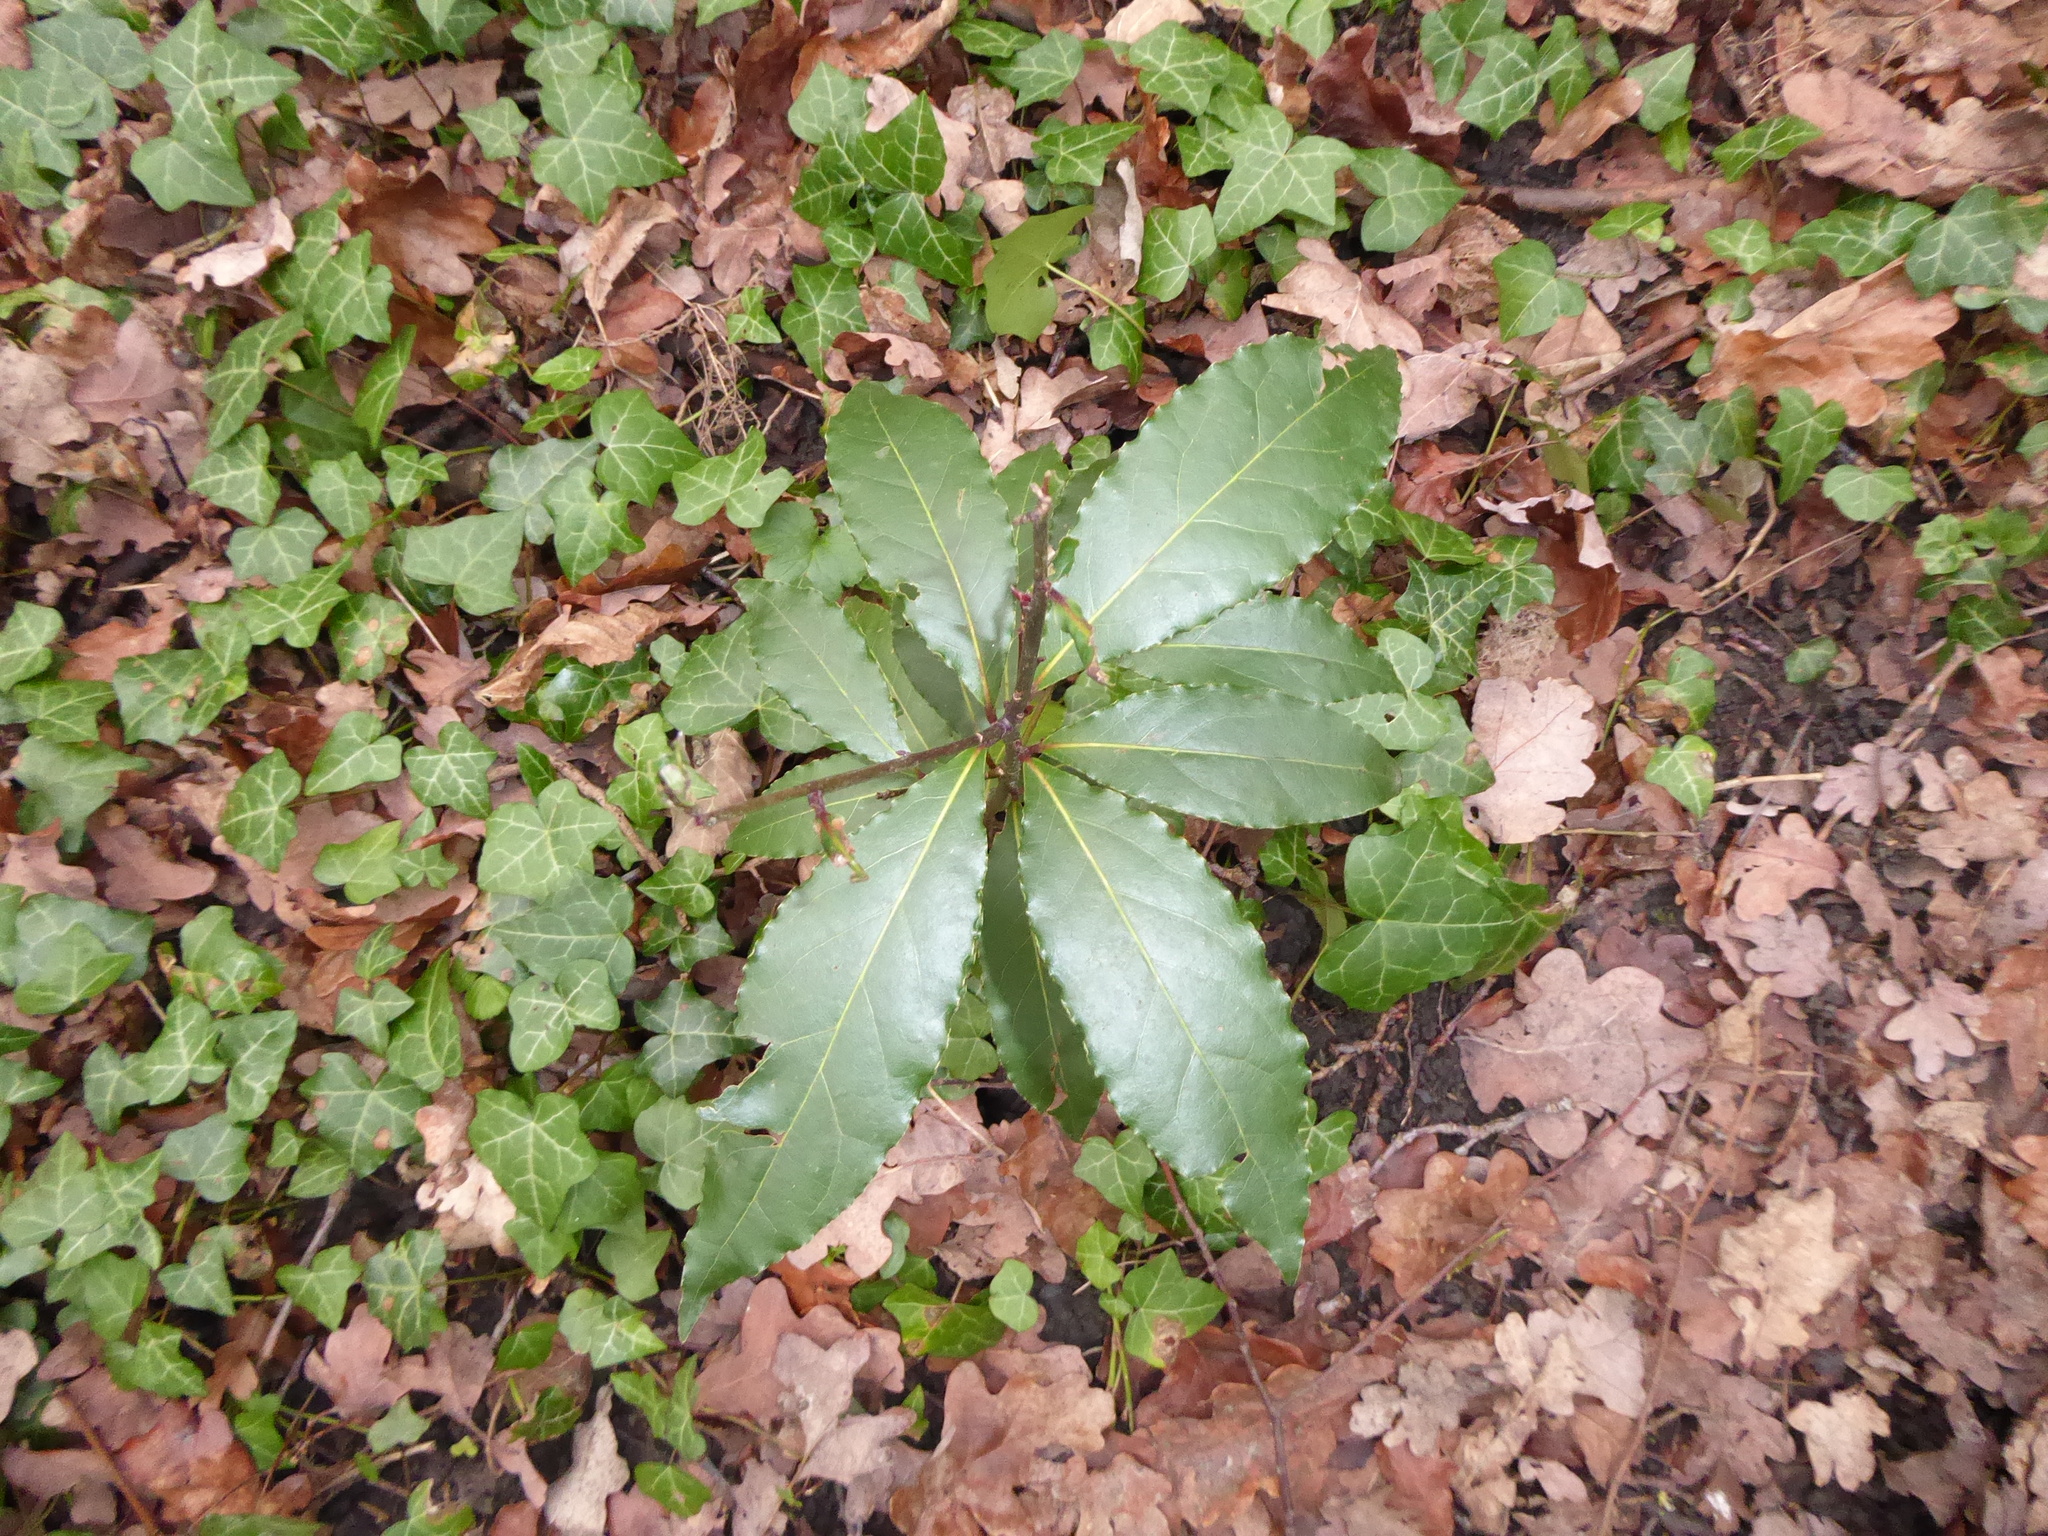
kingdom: Plantae
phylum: Tracheophyta
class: Magnoliopsida
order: Laurales
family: Lauraceae
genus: Laurus
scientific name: Laurus nobilis
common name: Bay
